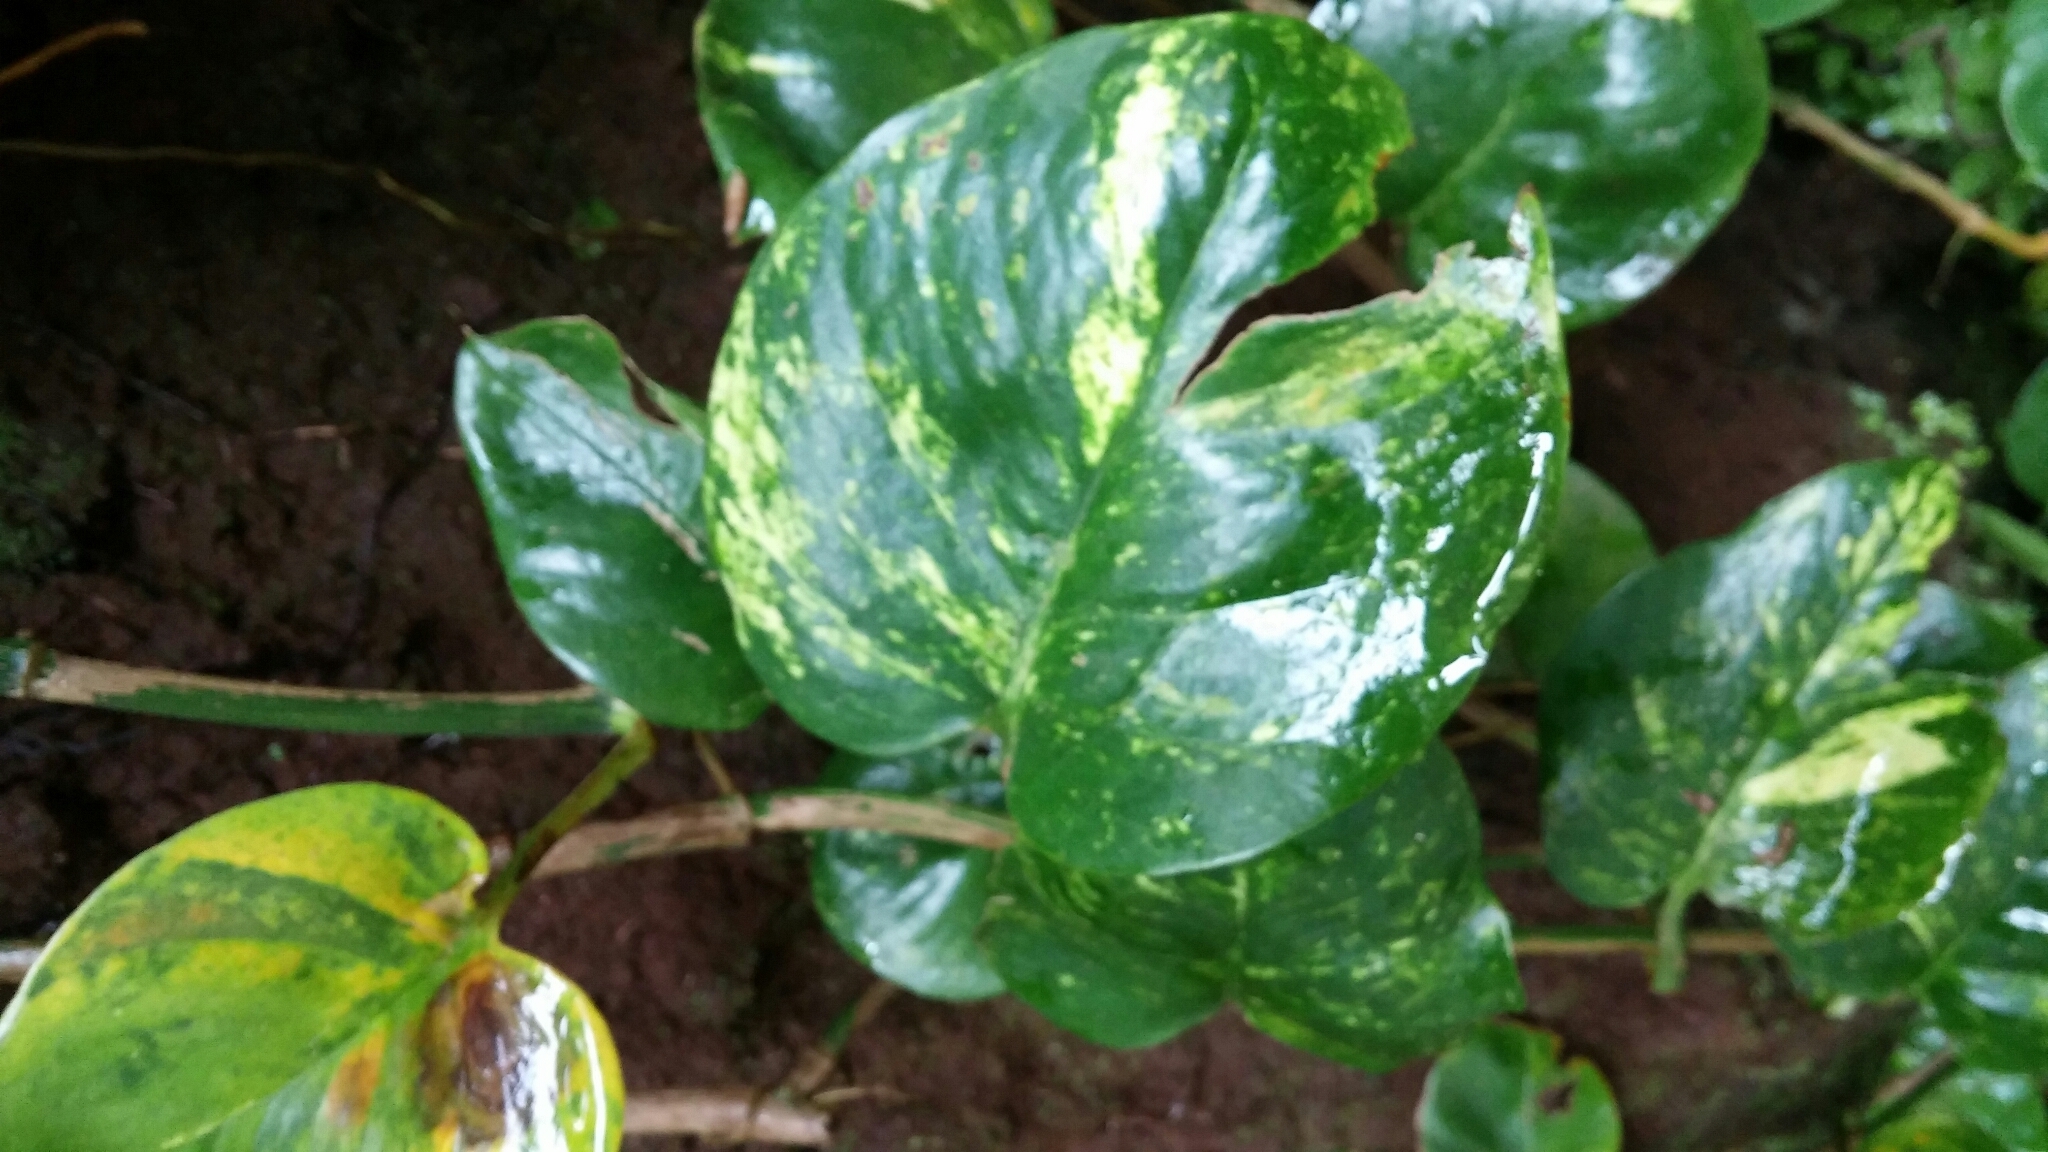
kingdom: Plantae
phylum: Tracheophyta
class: Liliopsida
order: Alismatales
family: Araceae
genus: Epipremnum
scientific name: Epipremnum aureum
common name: Golden hunter's-robe
